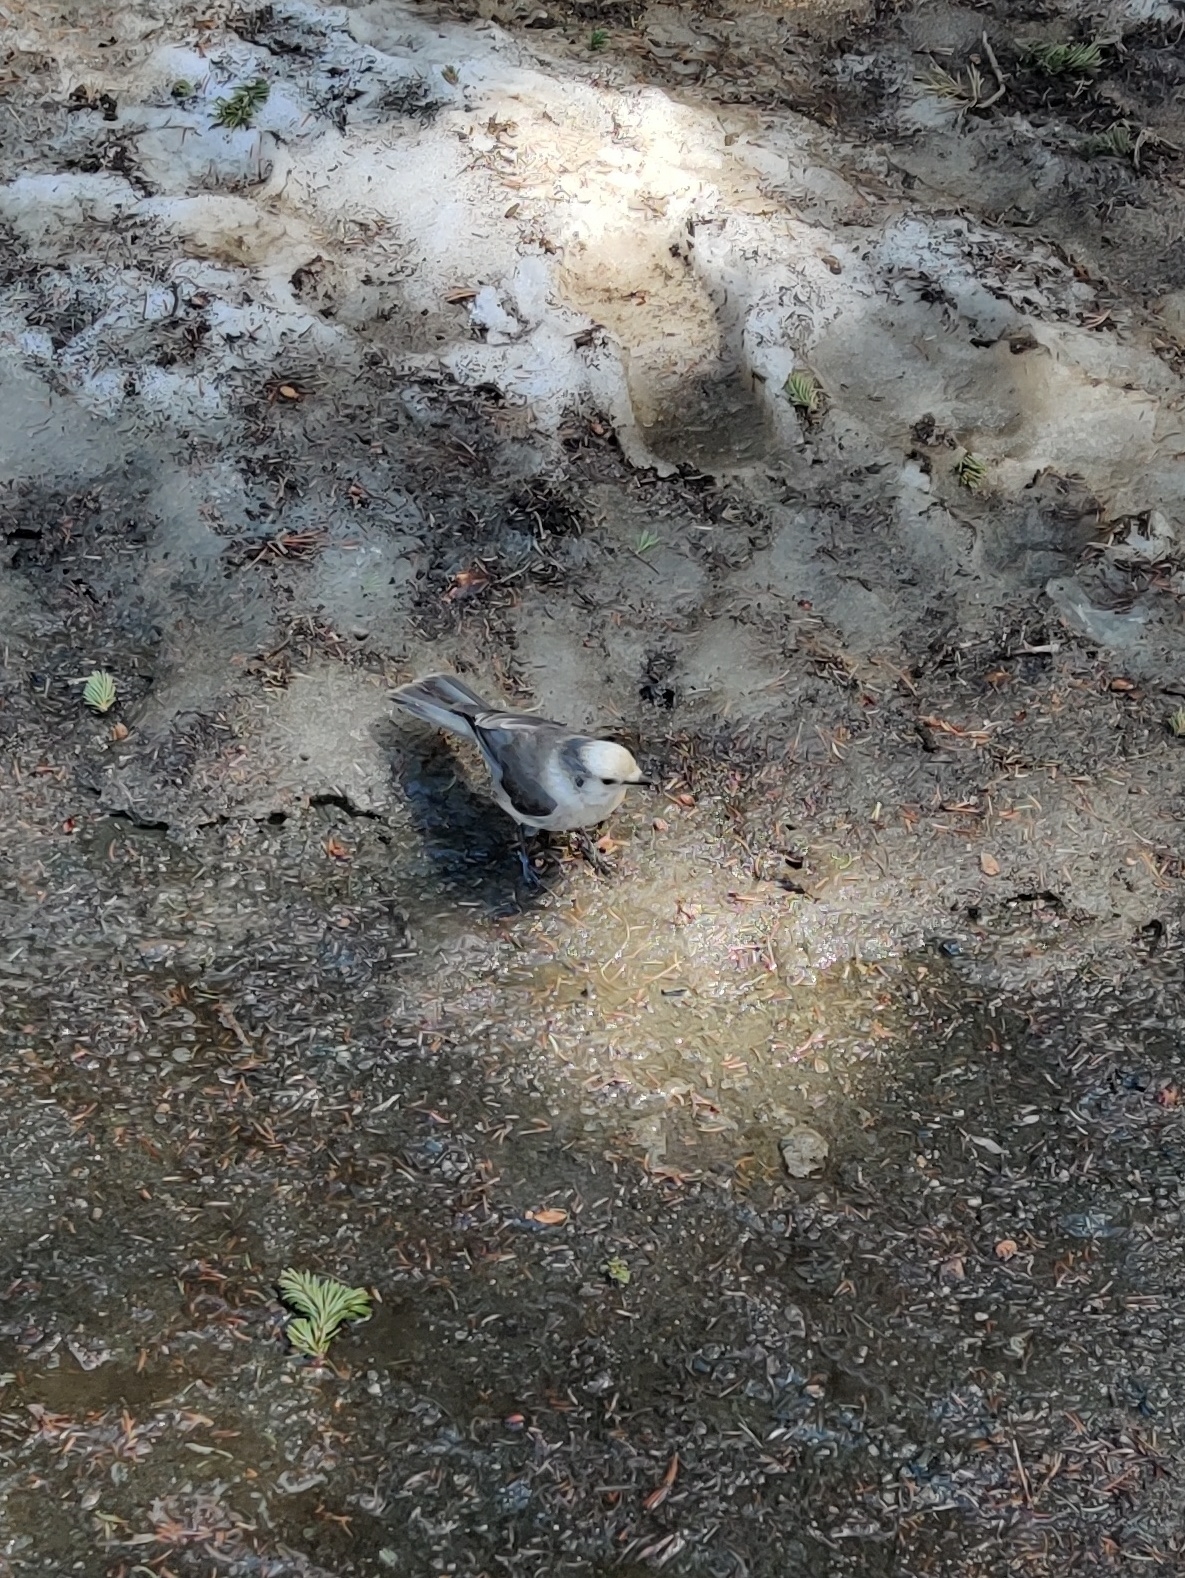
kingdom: Animalia
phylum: Chordata
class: Aves
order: Passeriformes
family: Corvidae
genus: Perisoreus
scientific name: Perisoreus canadensis
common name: Gray jay
